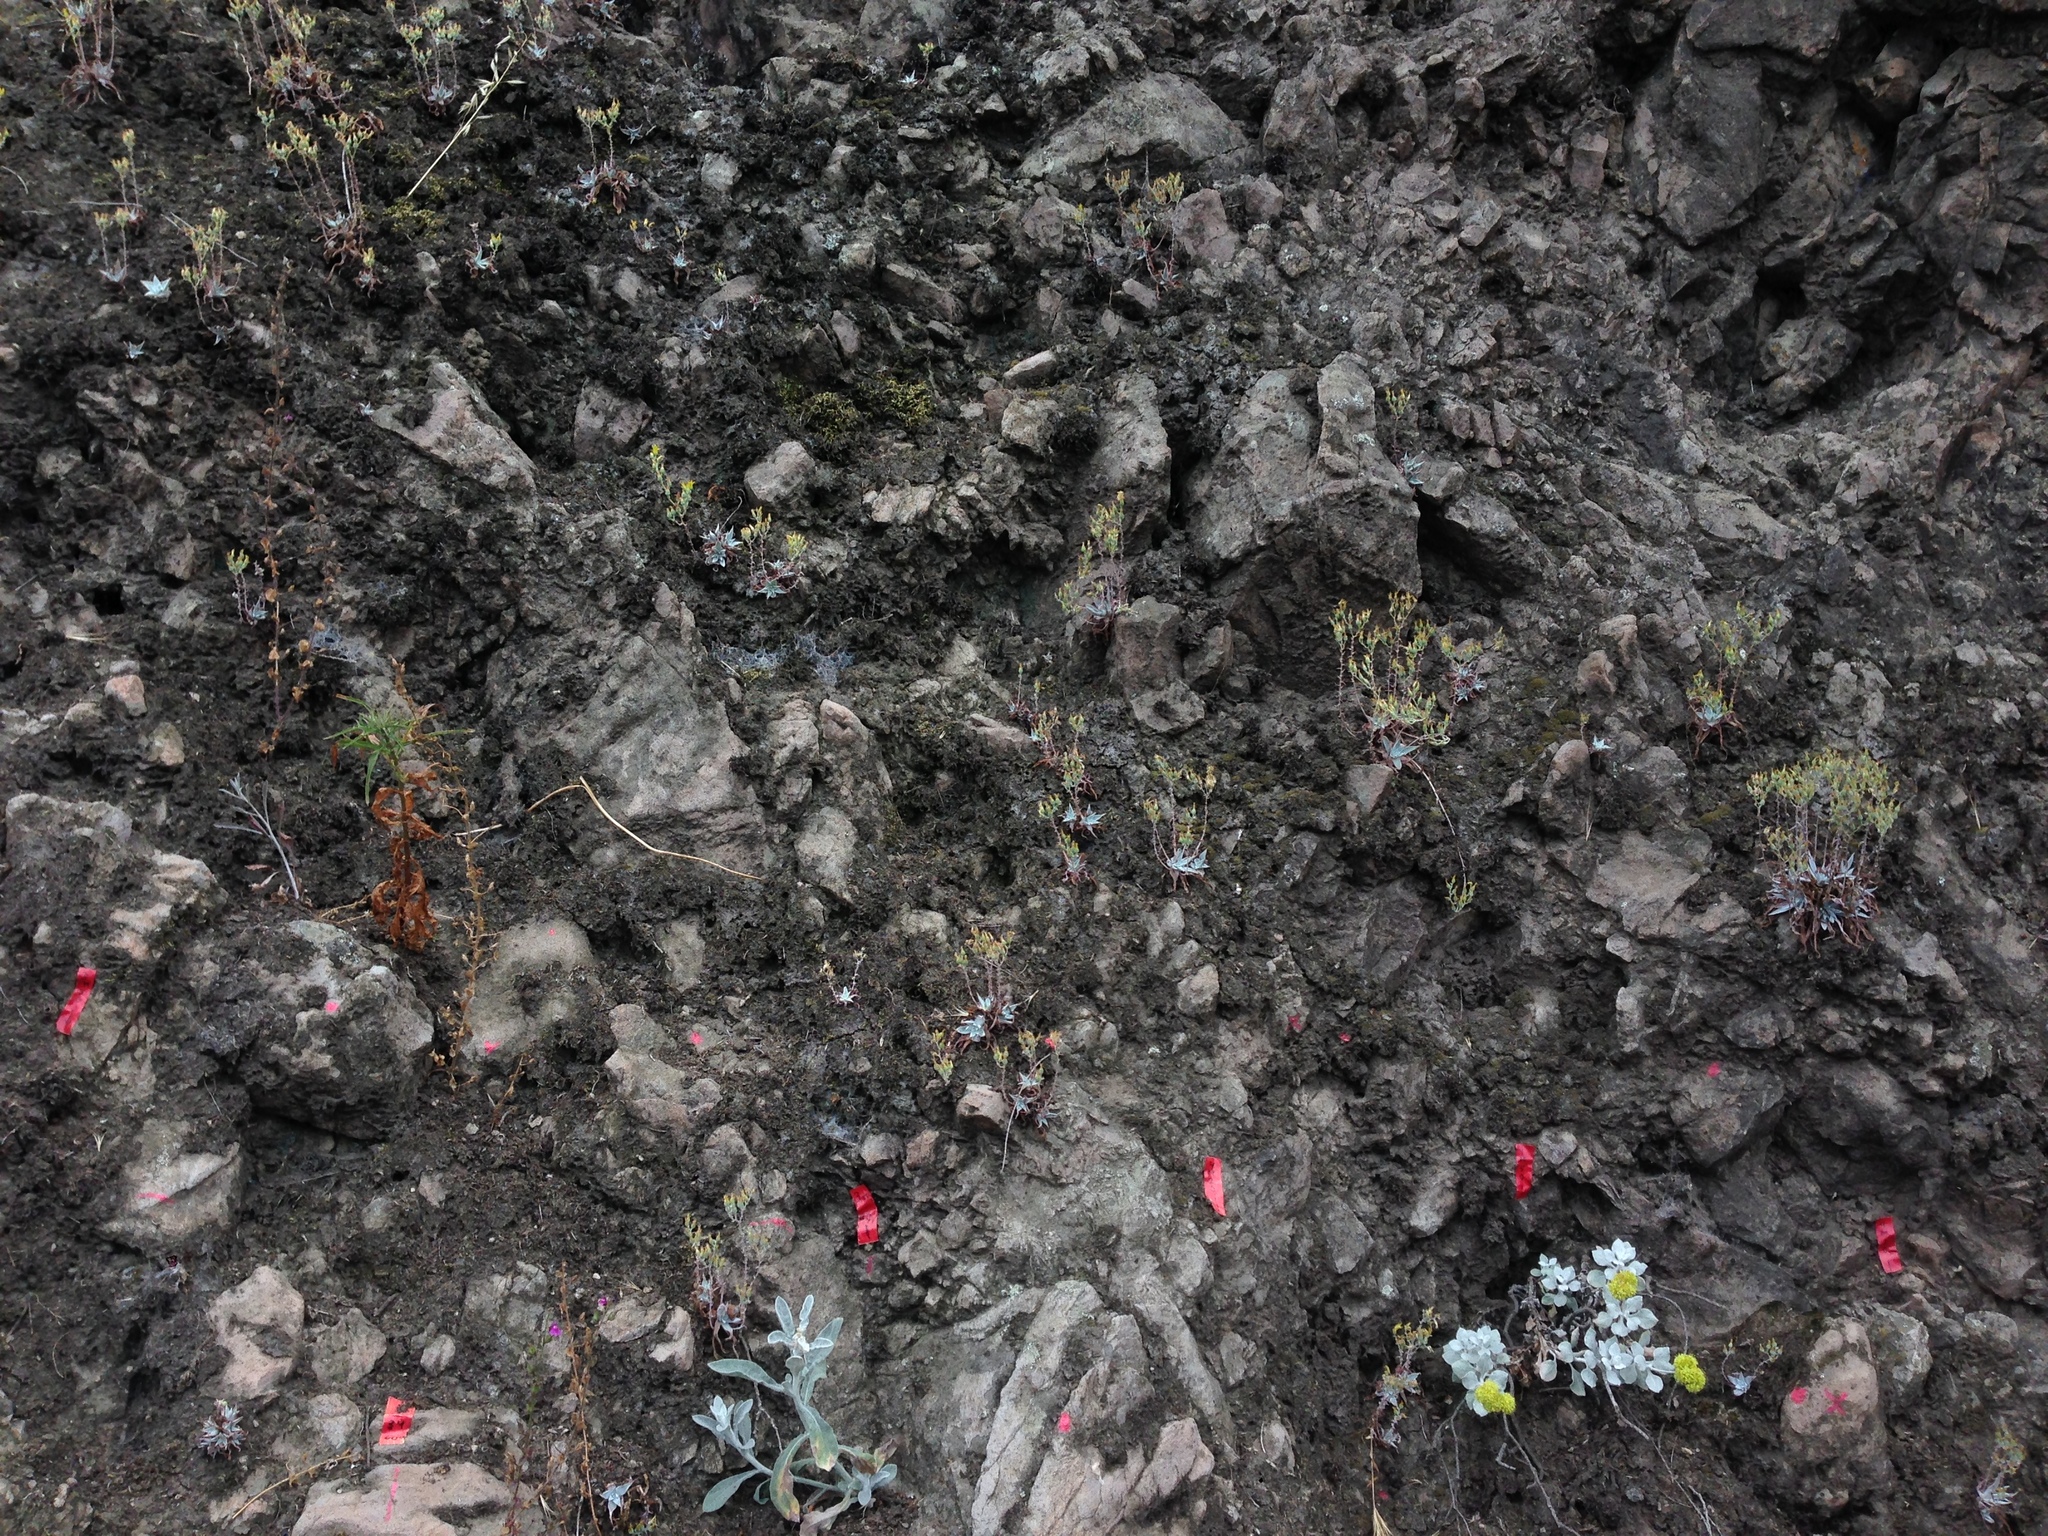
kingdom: Plantae
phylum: Tracheophyta
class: Magnoliopsida
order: Saxifragales
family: Crassulaceae
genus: Dudleya
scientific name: Dudleya verityi
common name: Verity dudleya
